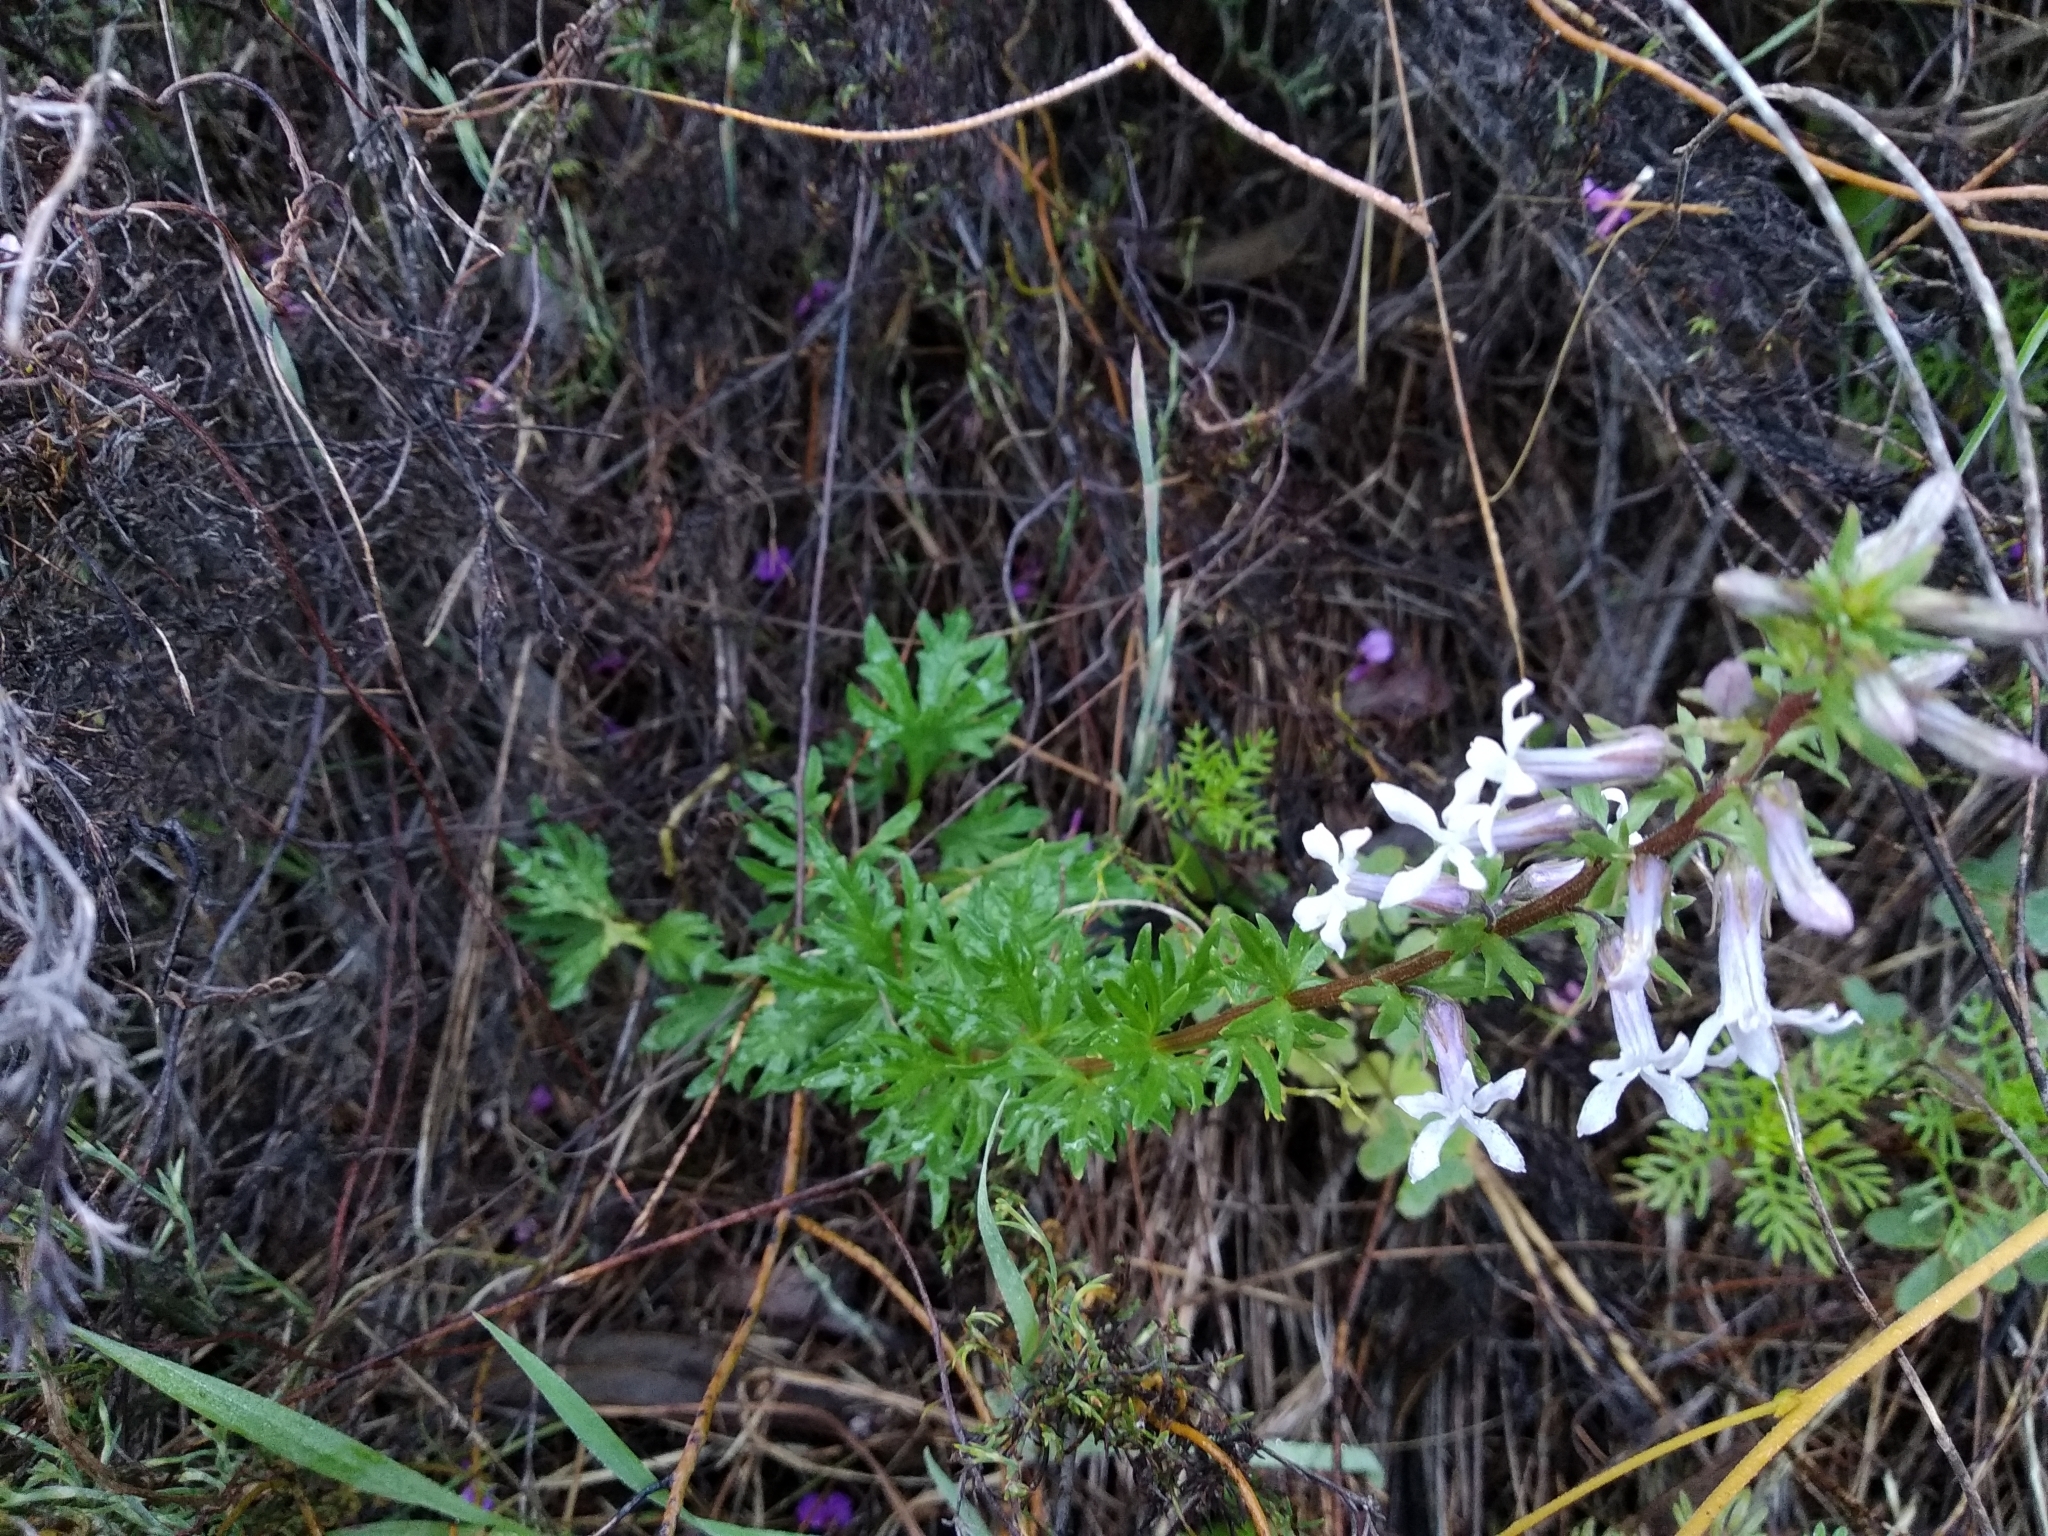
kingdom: Plantae
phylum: Tracheophyta
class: Magnoliopsida
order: Asterales
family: Campanulaceae
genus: Cyphia
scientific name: Cyphia bulbosa
